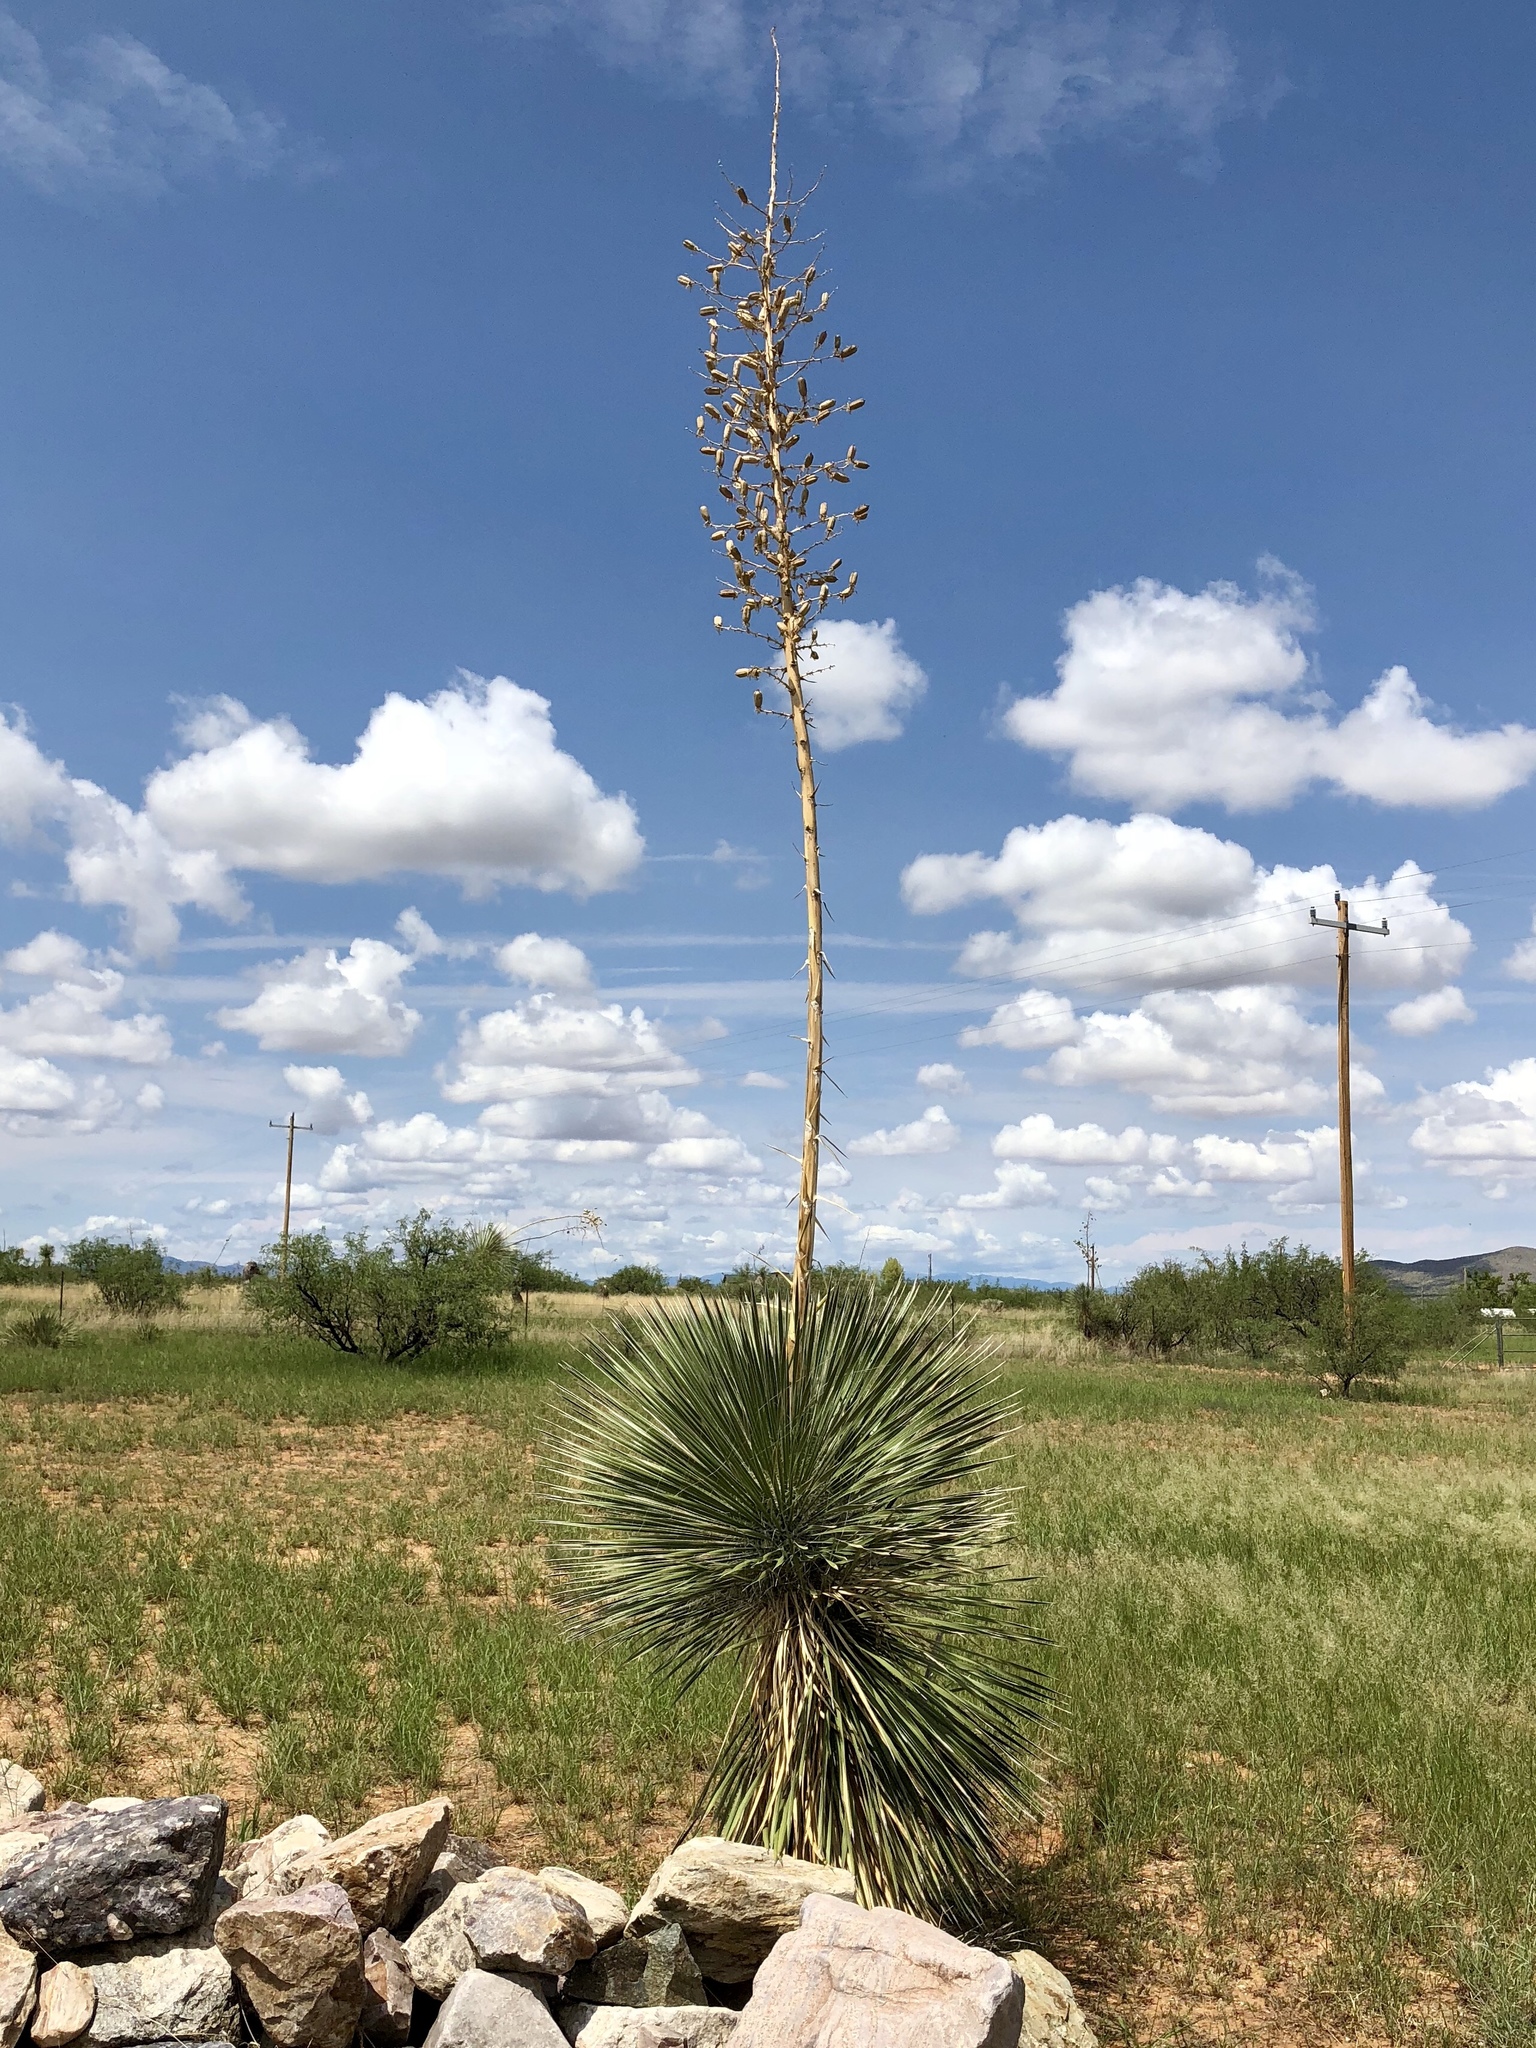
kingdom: Plantae
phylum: Tracheophyta
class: Liliopsida
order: Asparagales
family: Asparagaceae
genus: Yucca
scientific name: Yucca elata
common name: Palmella
